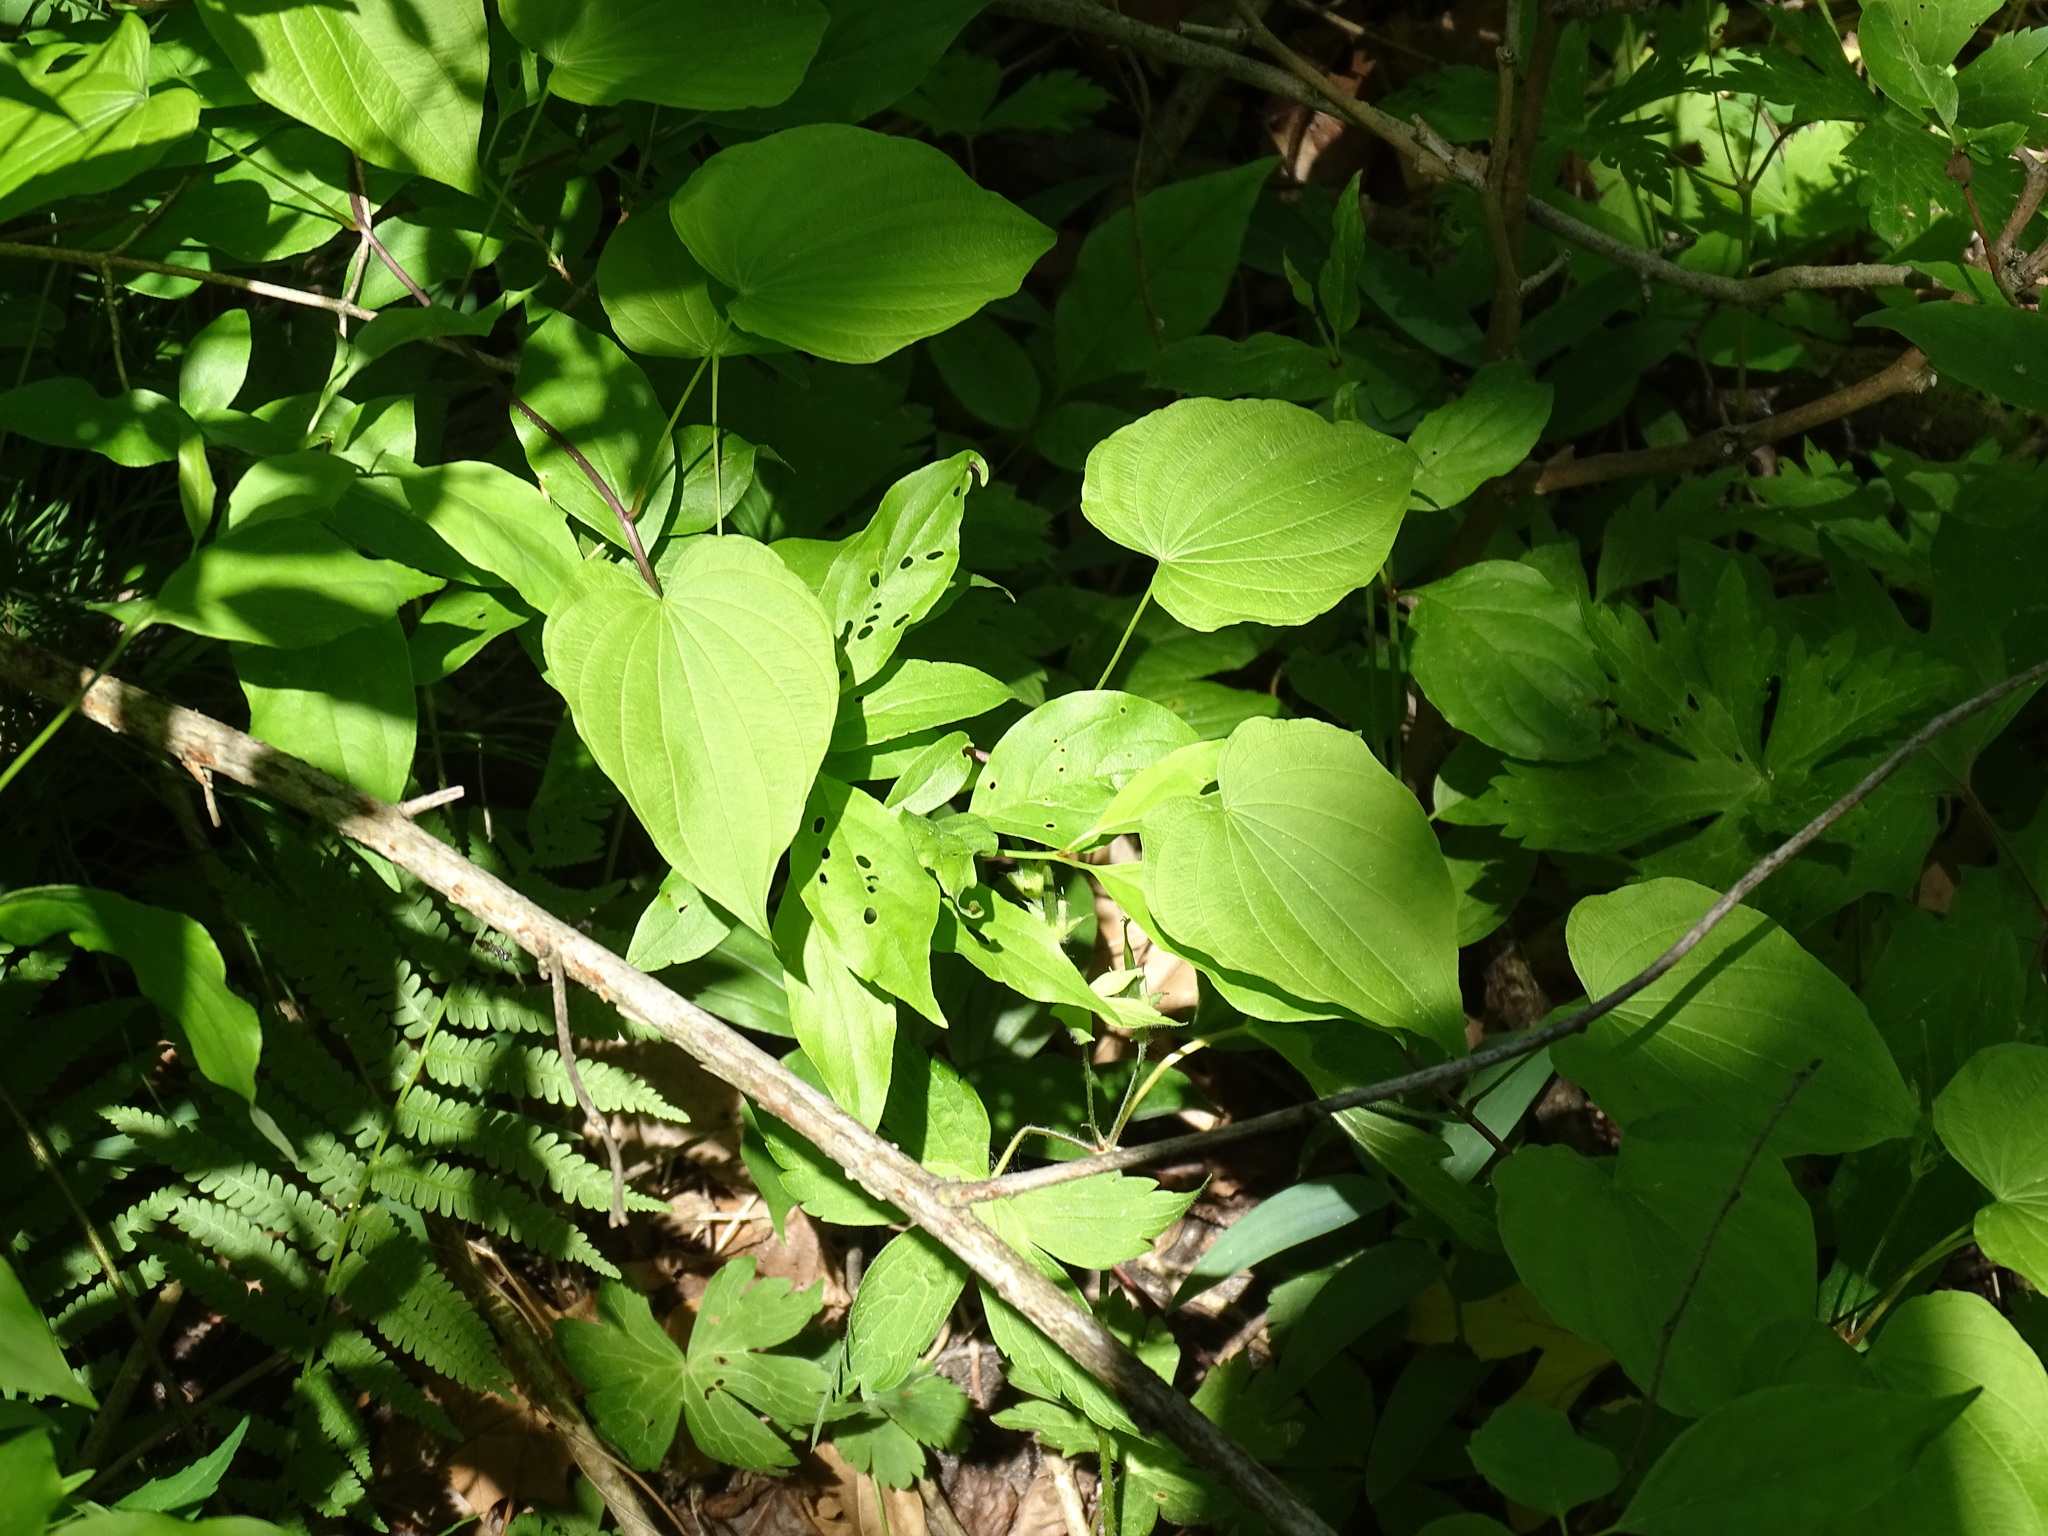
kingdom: Plantae
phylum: Tracheophyta
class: Liliopsida
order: Dioscoreales
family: Dioscoreaceae
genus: Dioscorea
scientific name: Dioscorea villosa
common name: Wild yam
